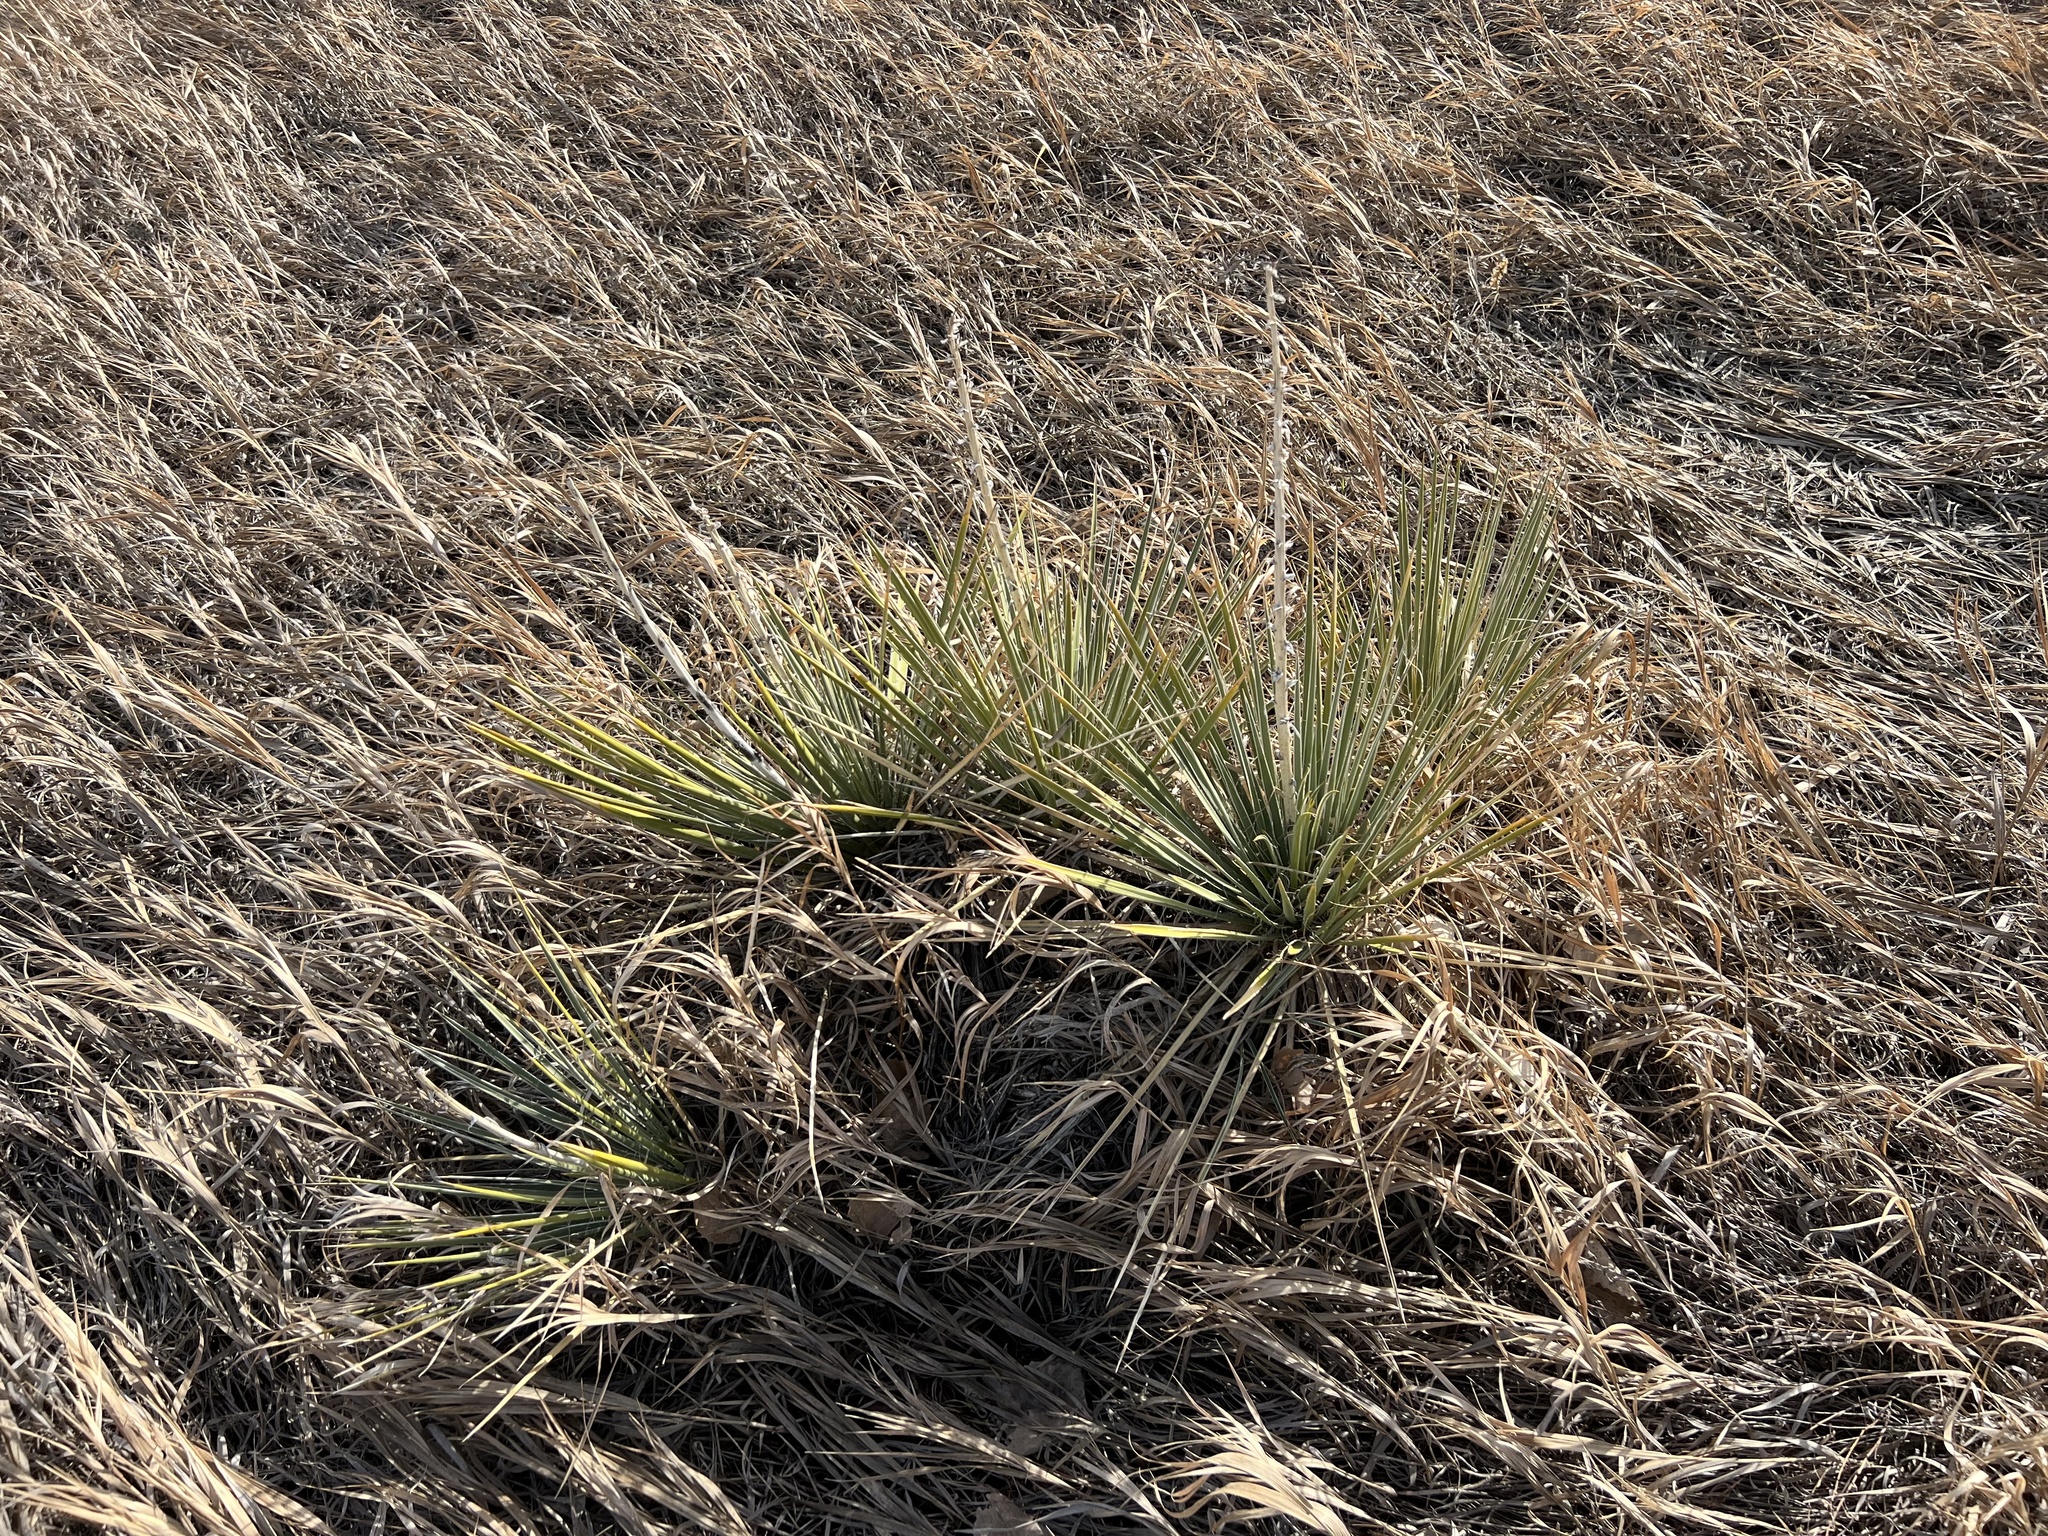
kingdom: Plantae
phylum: Tracheophyta
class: Liliopsida
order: Asparagales
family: Asparagaceae
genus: Yucca
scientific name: Yucca glauca
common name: Great plains yucca
